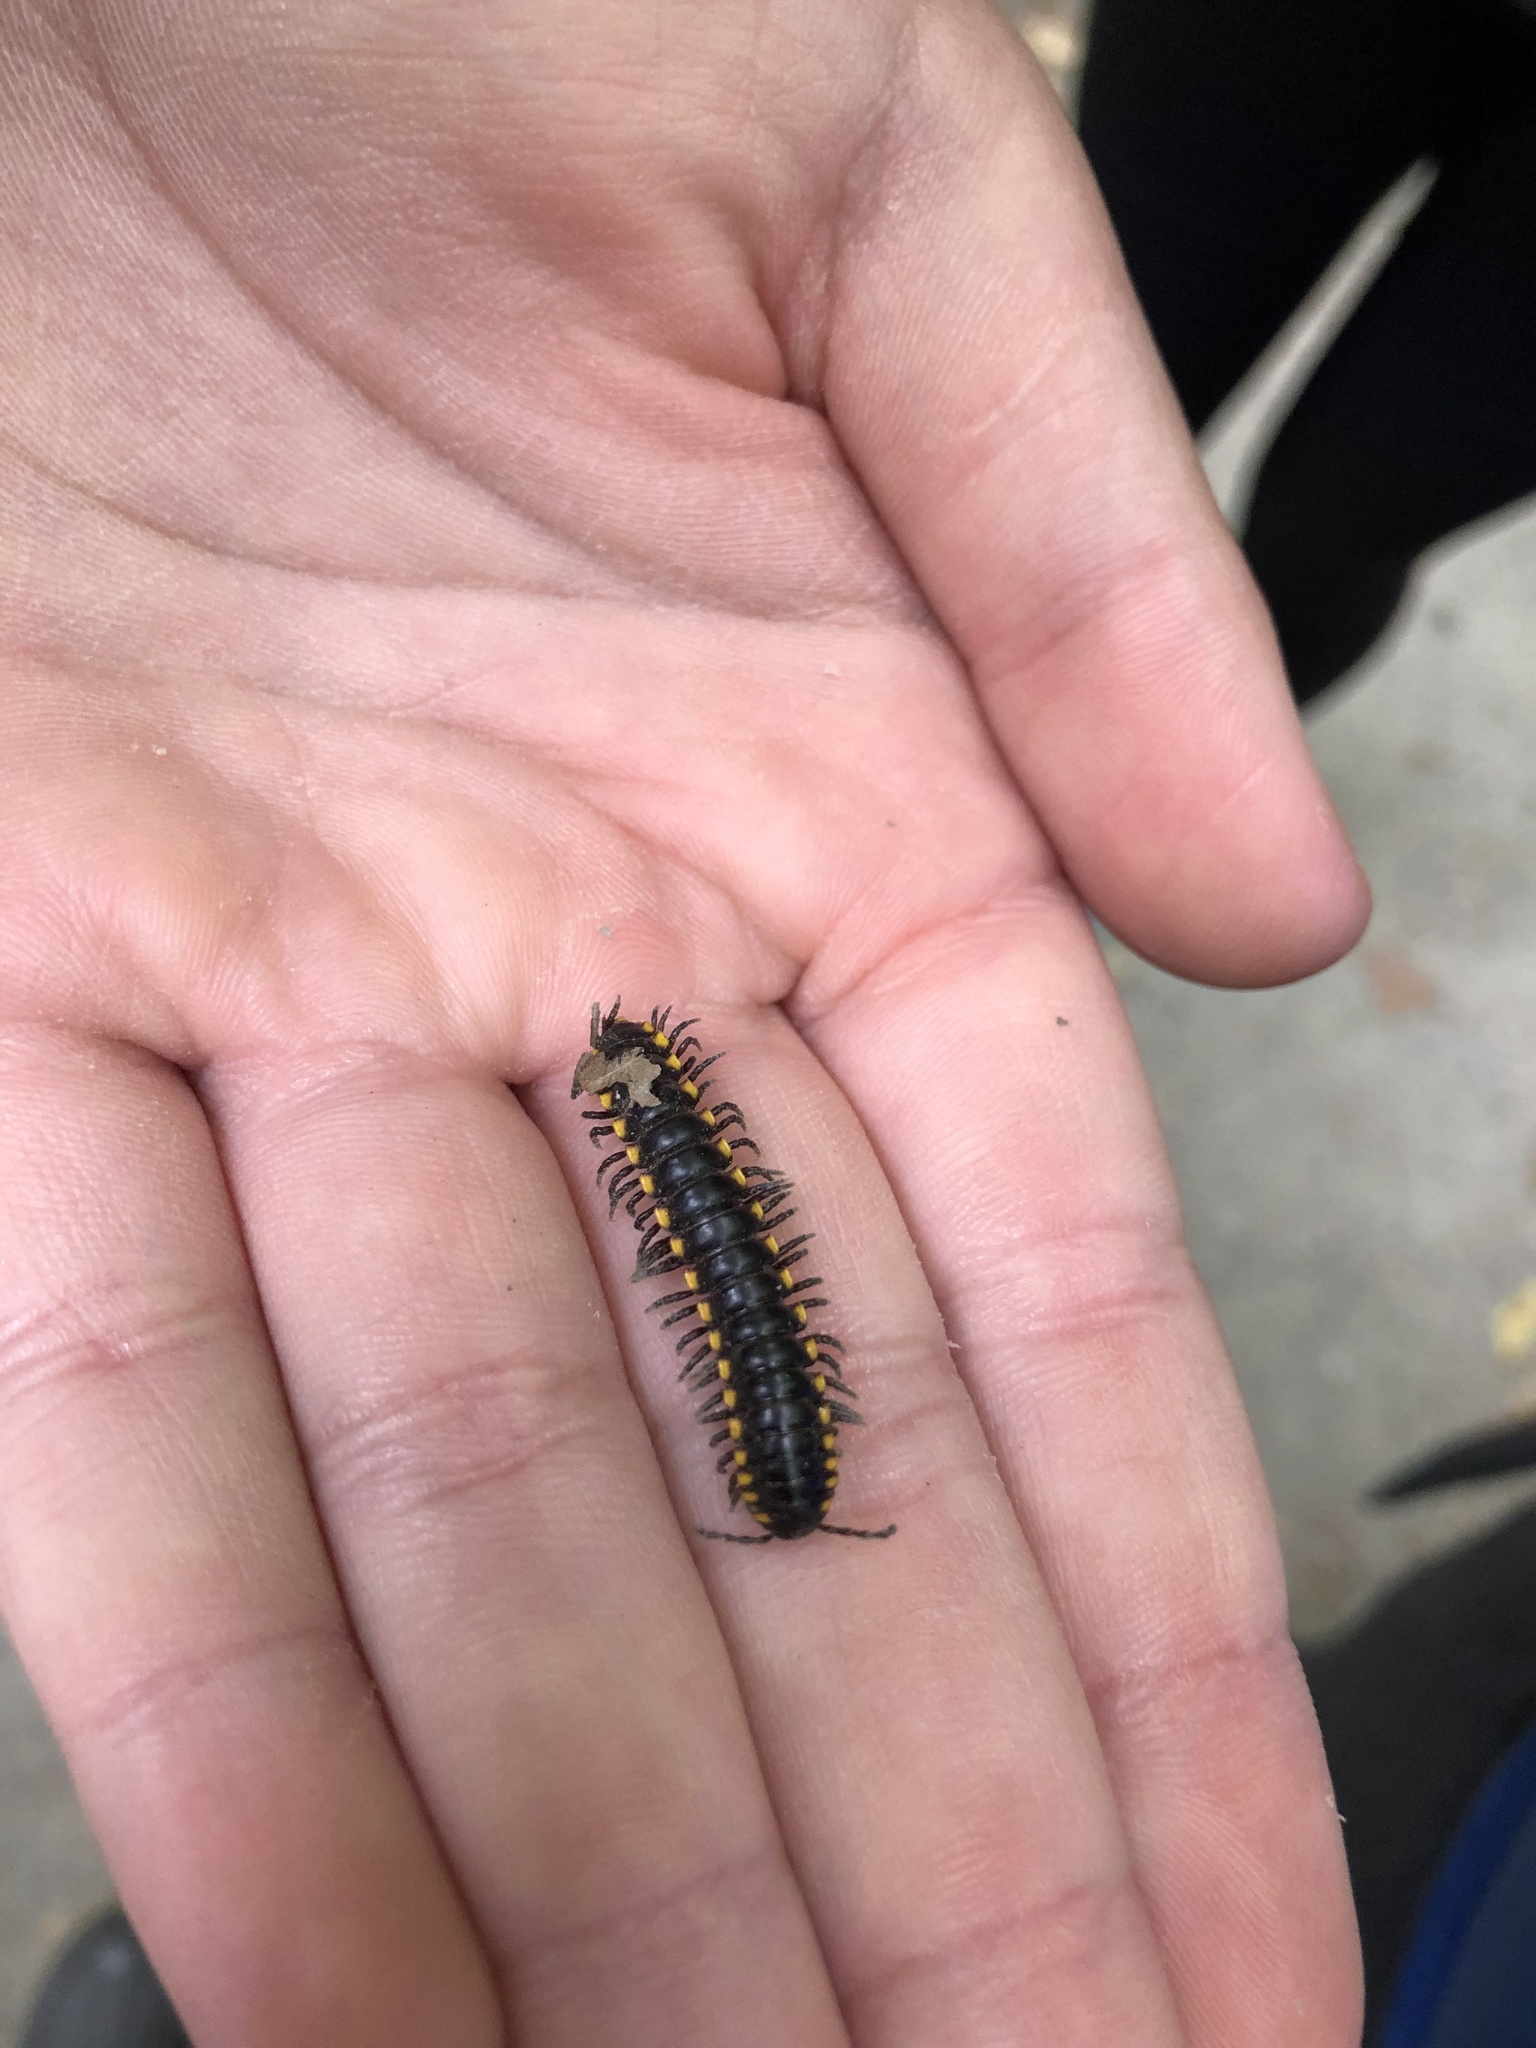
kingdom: Animalia
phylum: Arthropoda
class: Diplopoda
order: Polydesmida
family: Xystodesmidae
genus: Harpaphe
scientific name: Harpaphe haydeniana
